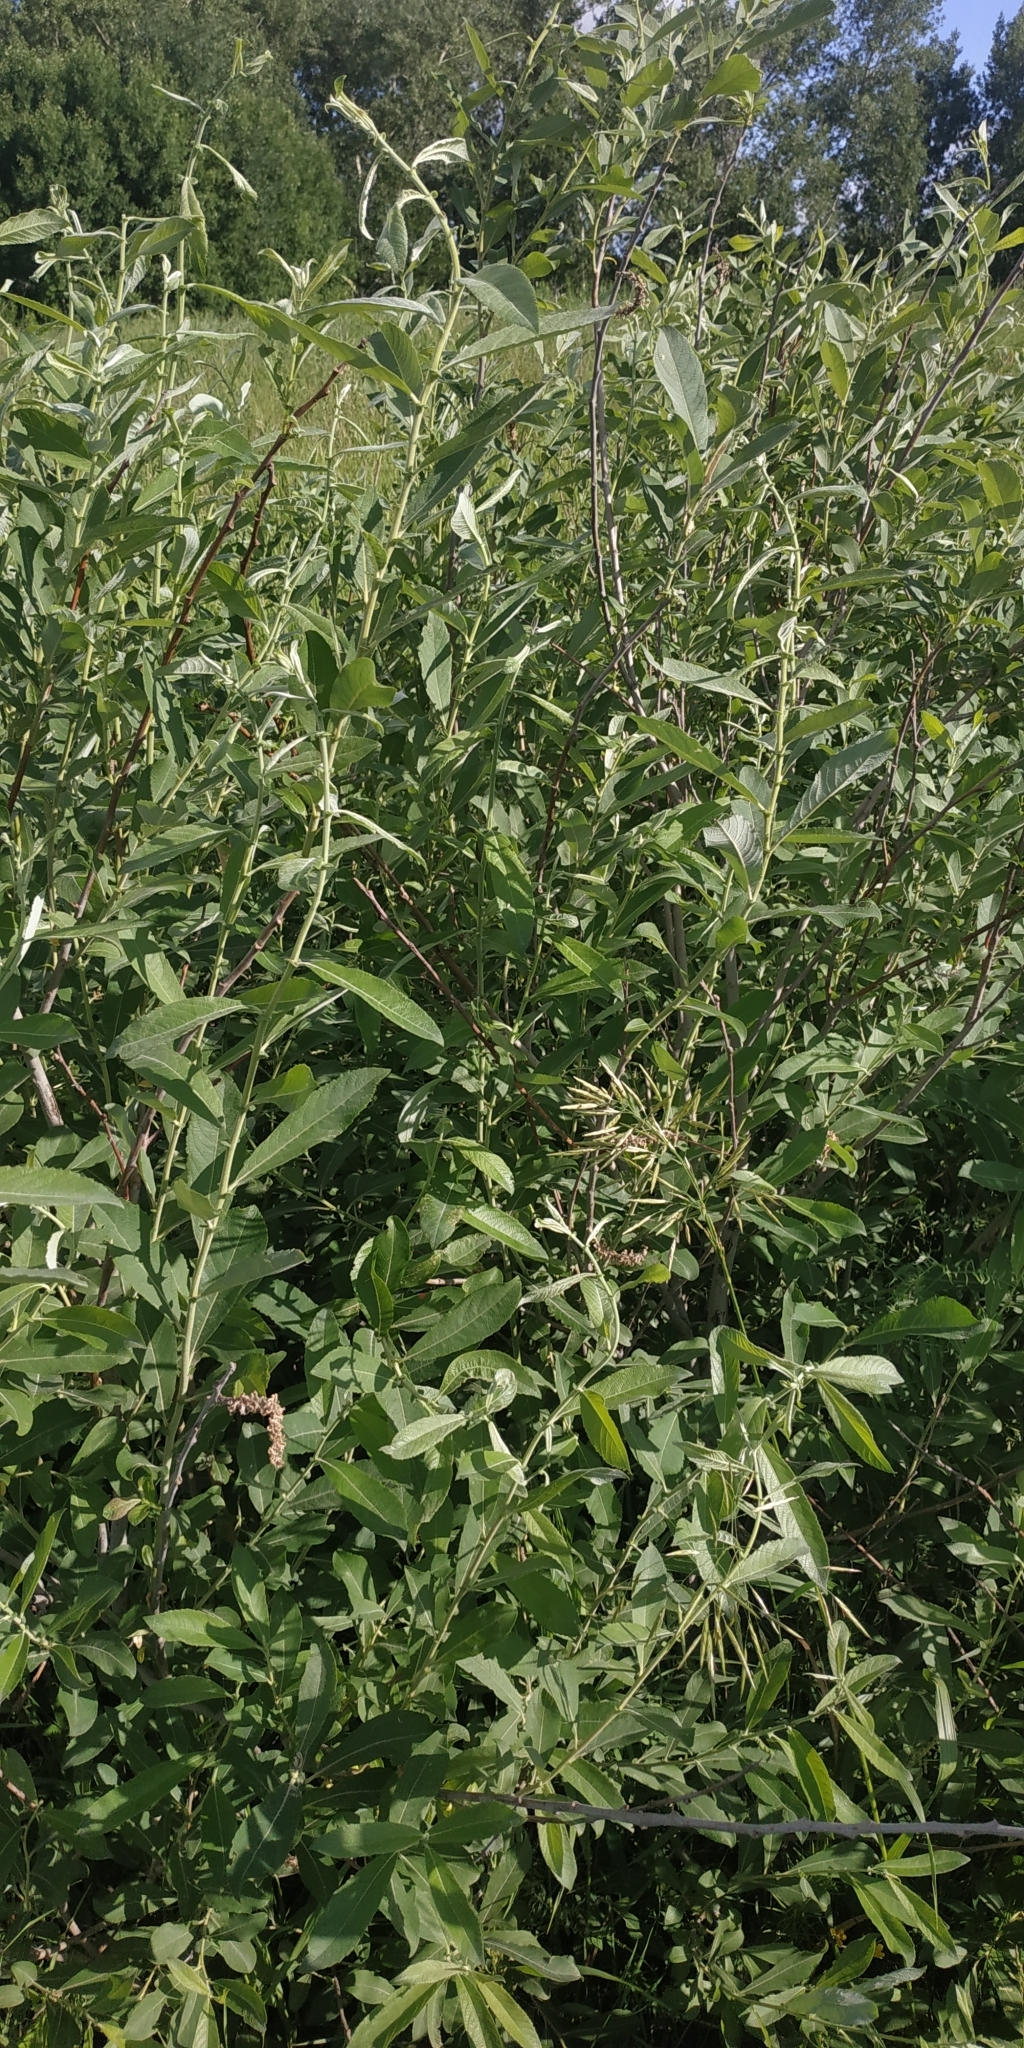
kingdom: Plantae
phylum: Tracheophyta
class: Magnoliopsida
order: Malpighiales
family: Salicaceae
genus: Salix
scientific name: Salix cinerea
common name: Common sallow
